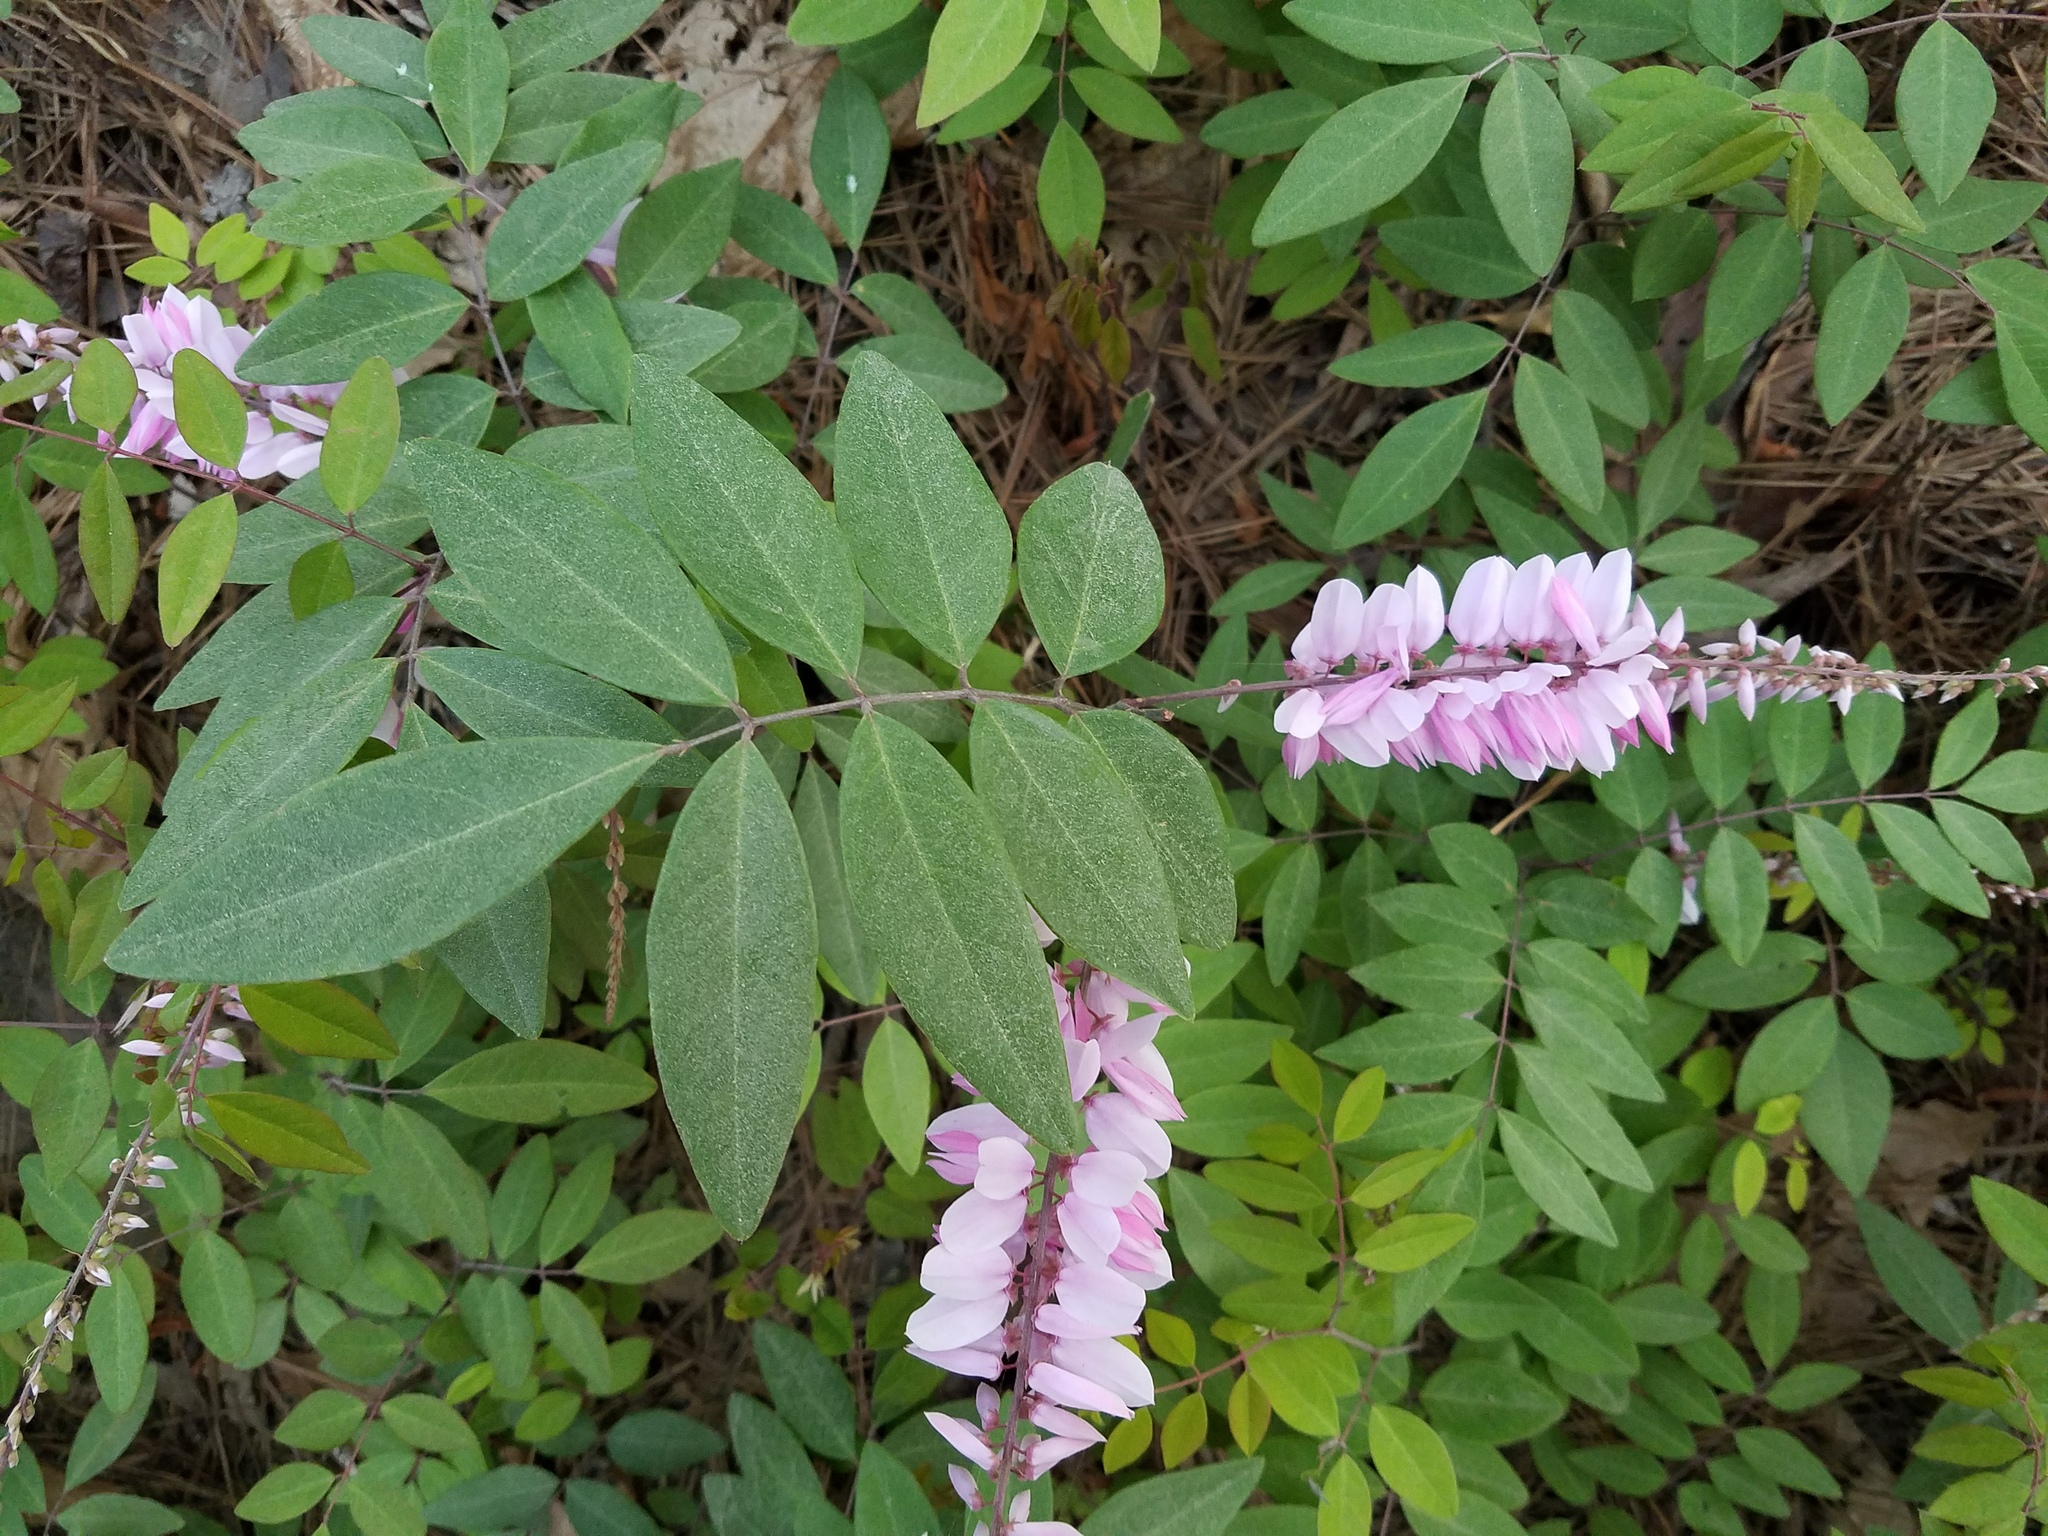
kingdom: Plantae
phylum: Tracheophyta
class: Magnoliopsida
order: Fabales
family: Fabaceae
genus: Indigofera
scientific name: Indigofera incarnata
